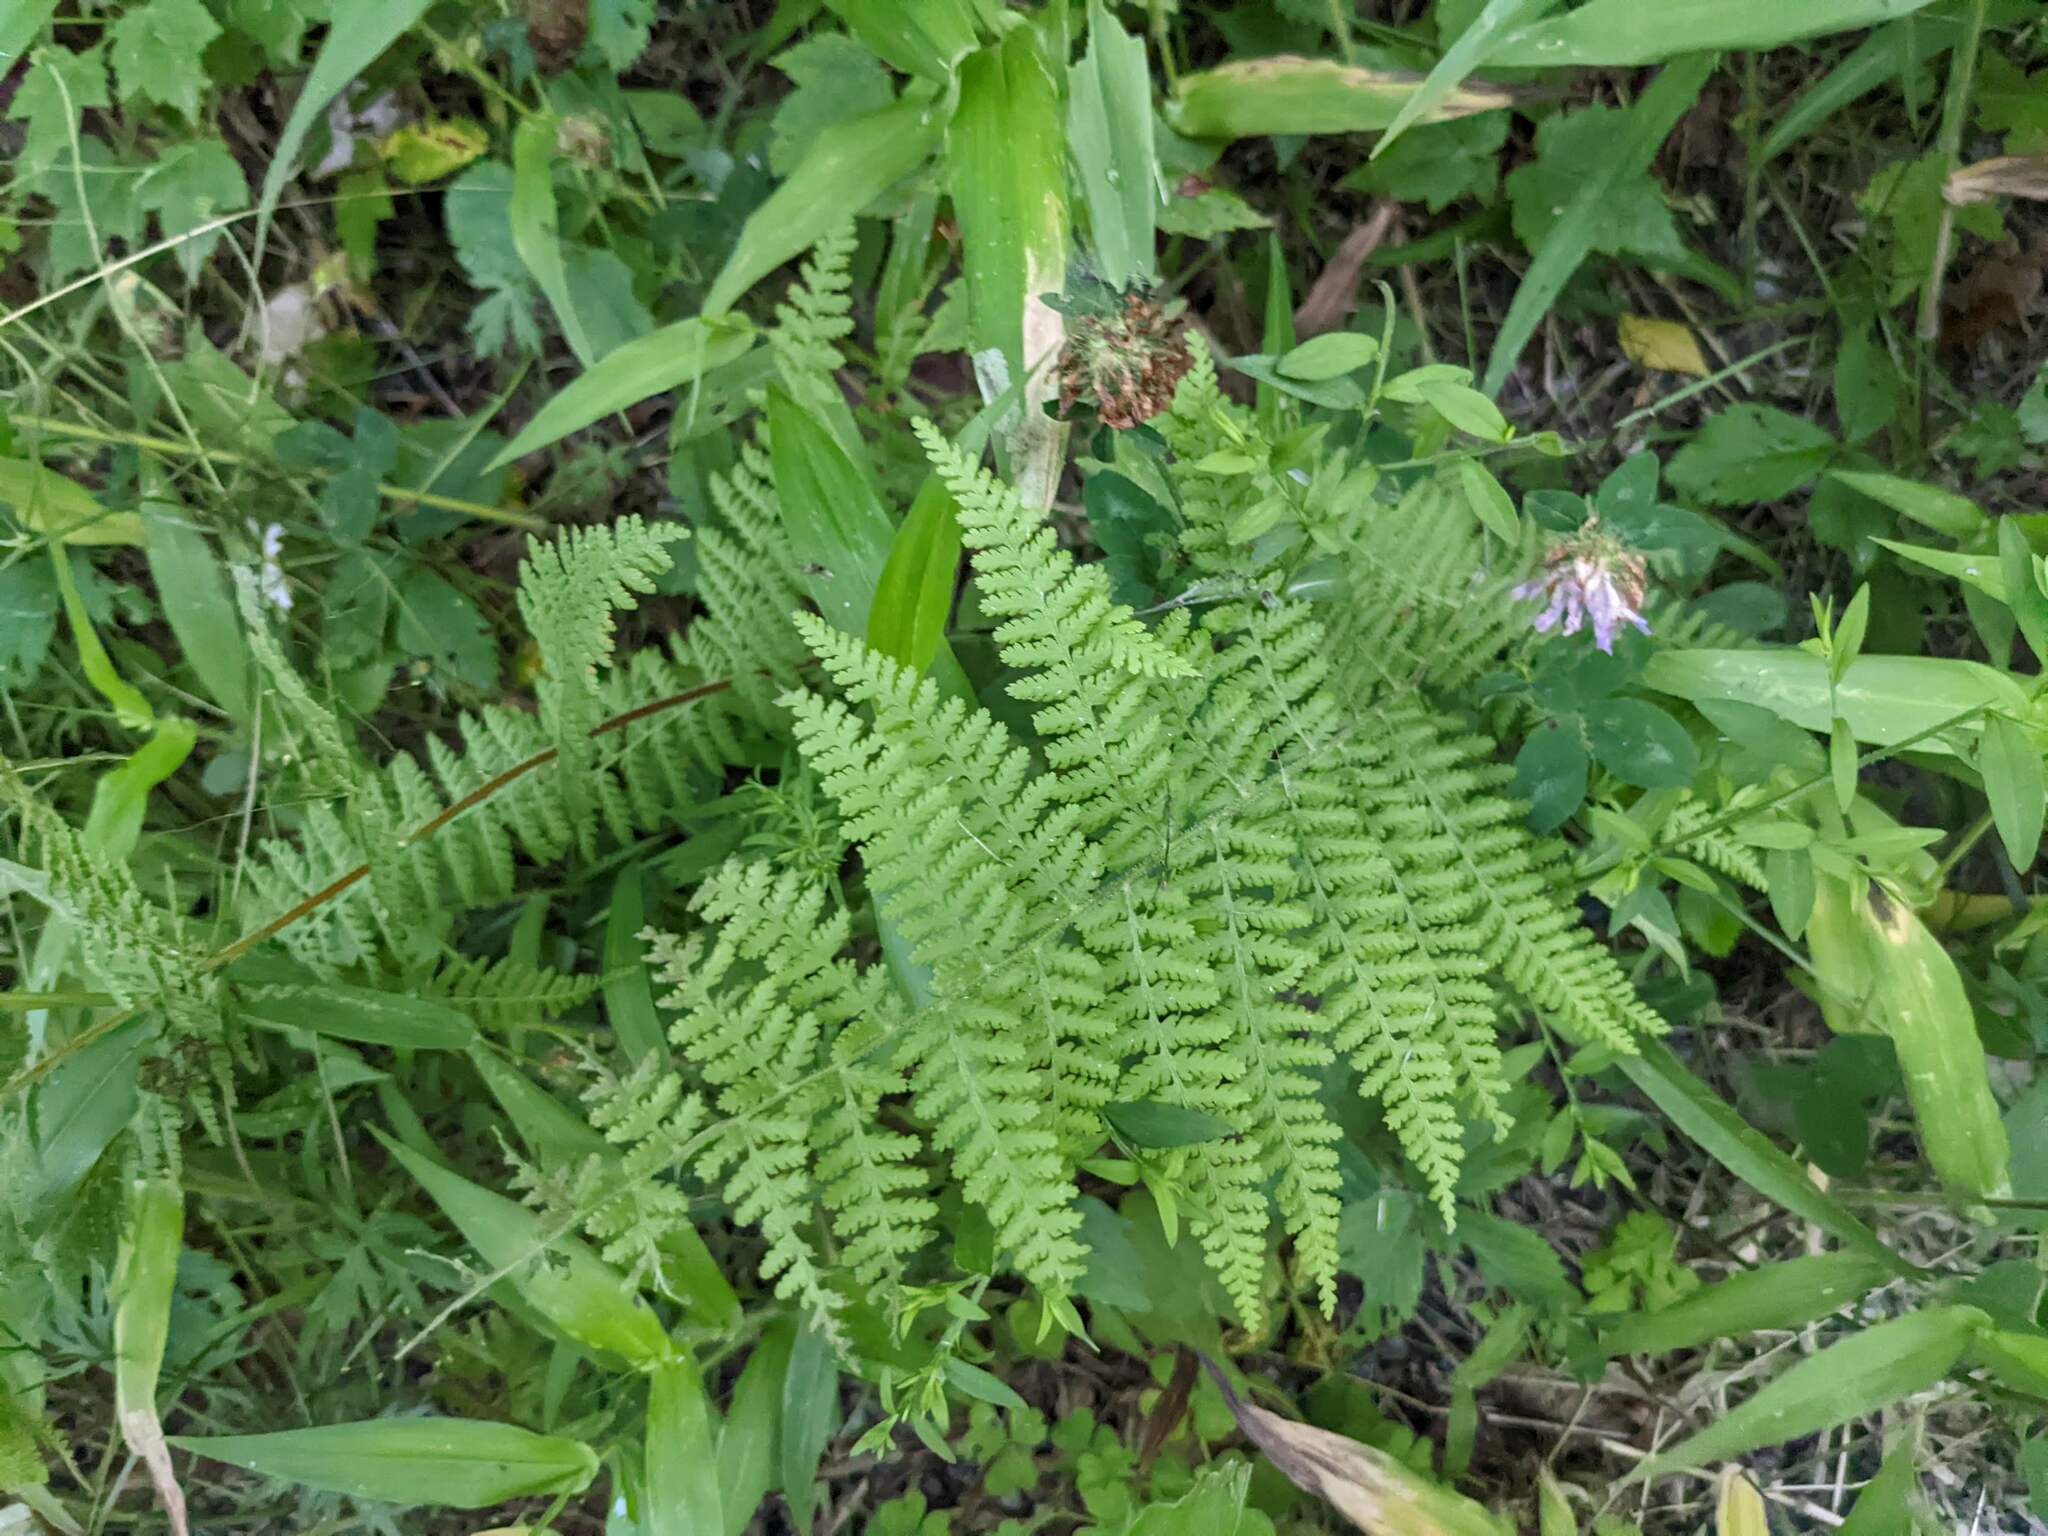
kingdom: Plantae
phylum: Tracheophyta
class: Polypodiopsida
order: Polypodiales
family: Dennstaedtiaceae
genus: Sitobolium
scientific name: Sitobolium punctilobum
